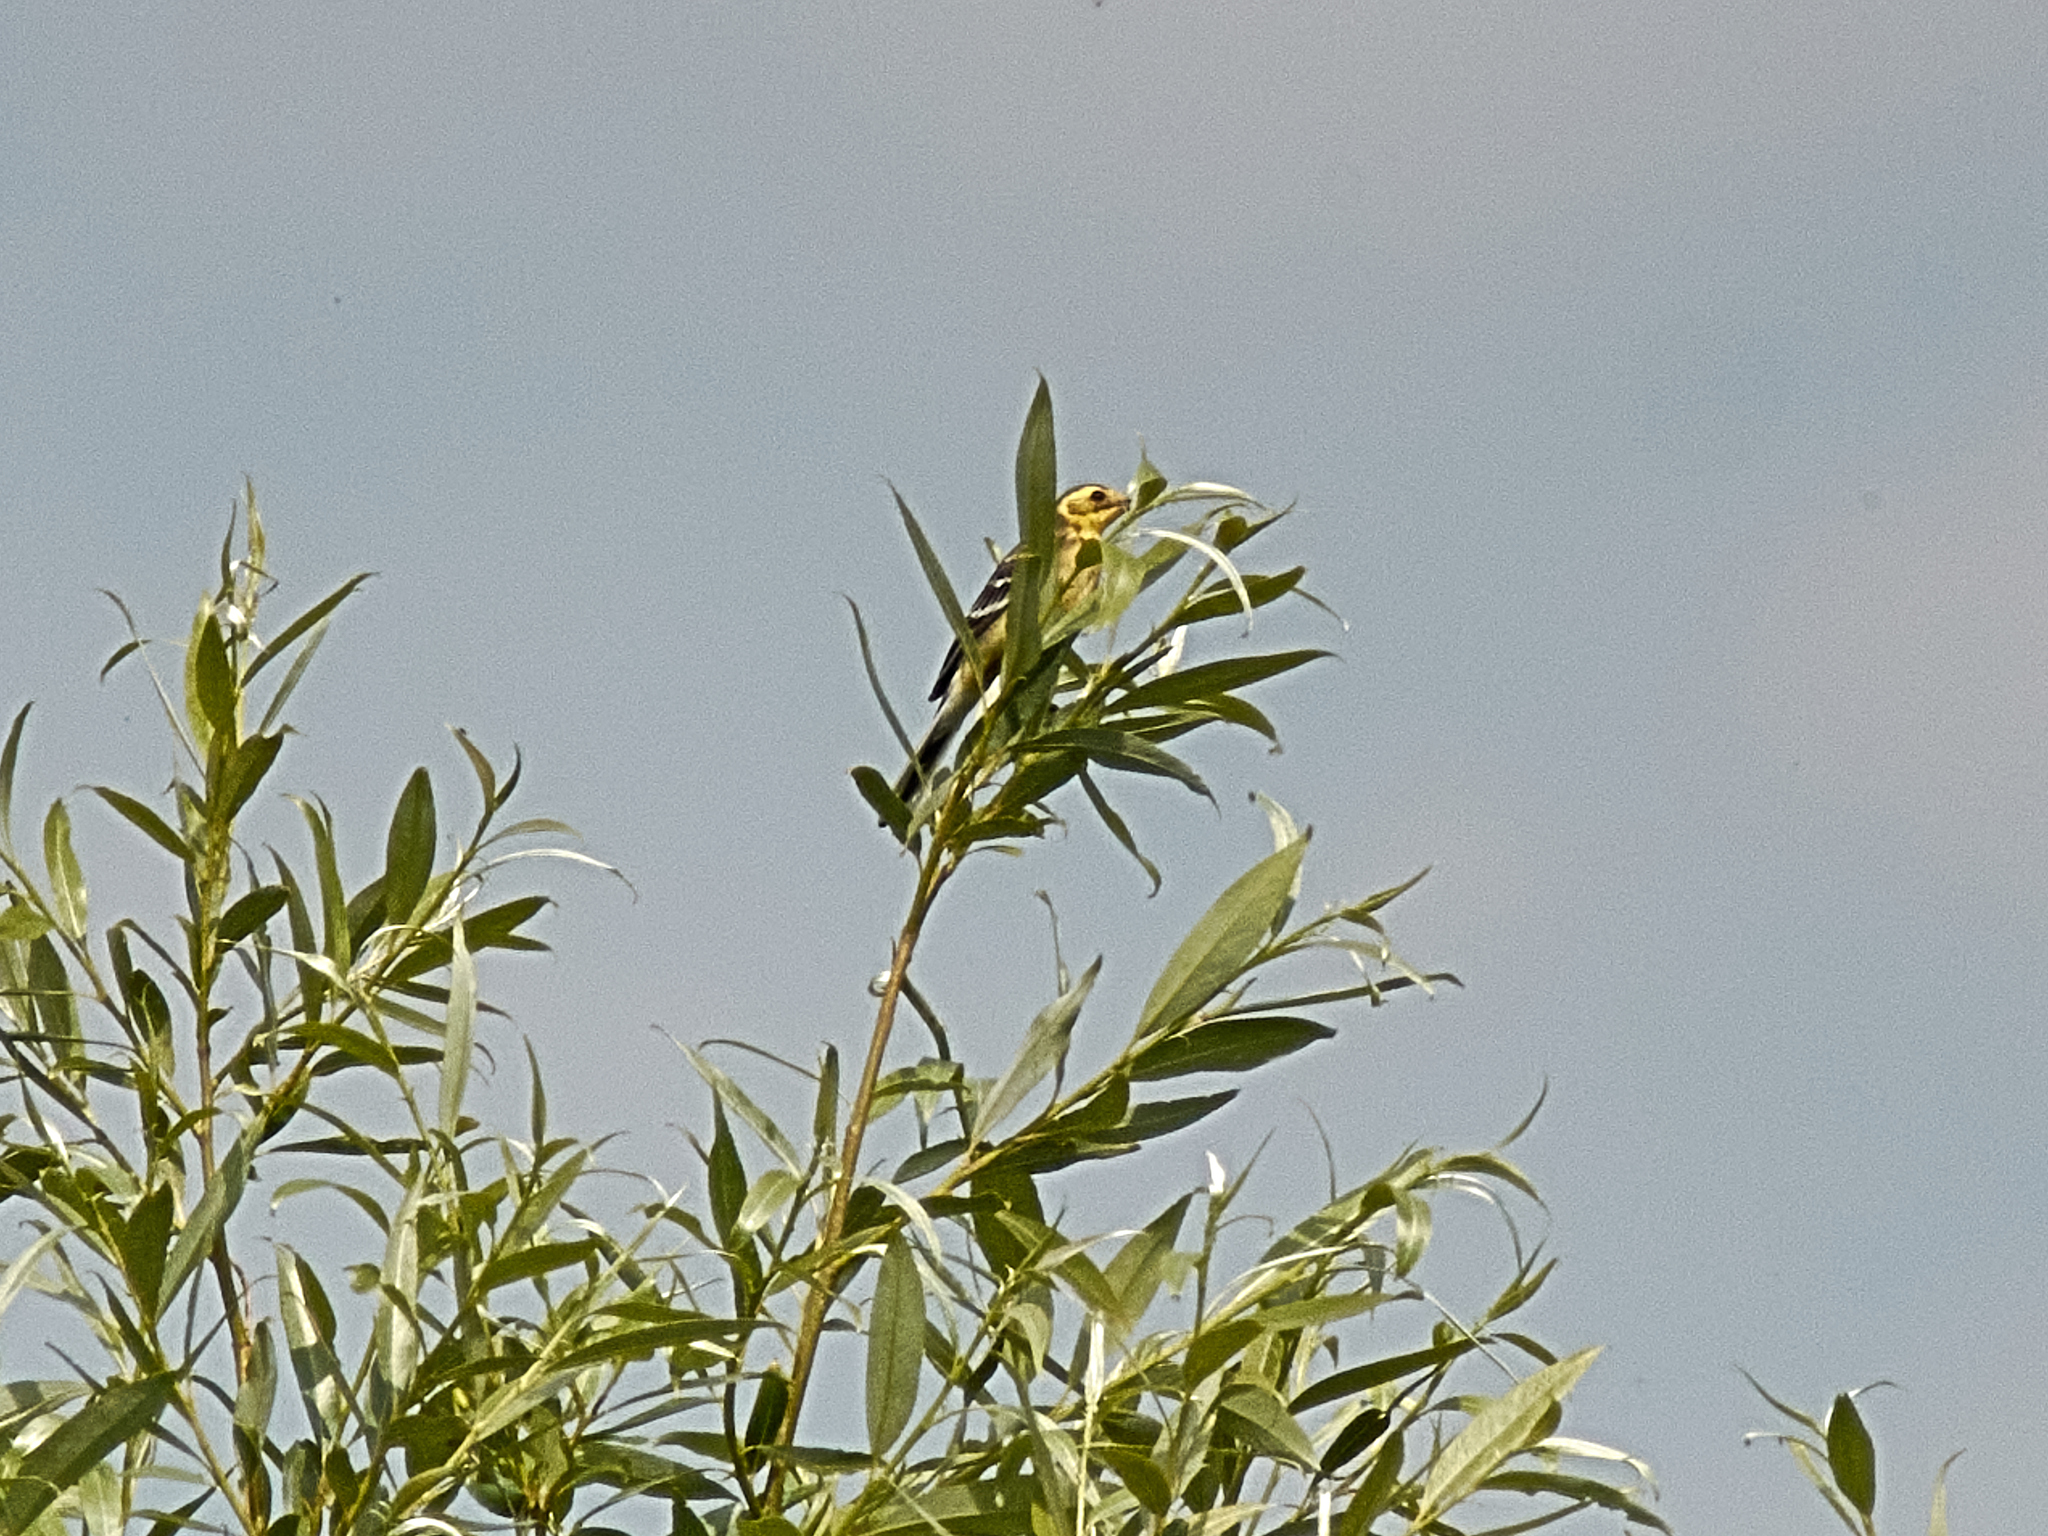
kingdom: Animalia
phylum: Chordata
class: Aves
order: Passeriformes
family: Motacillidae
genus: Motacilla
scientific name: Motacilla citreola
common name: Citrine wagtail
